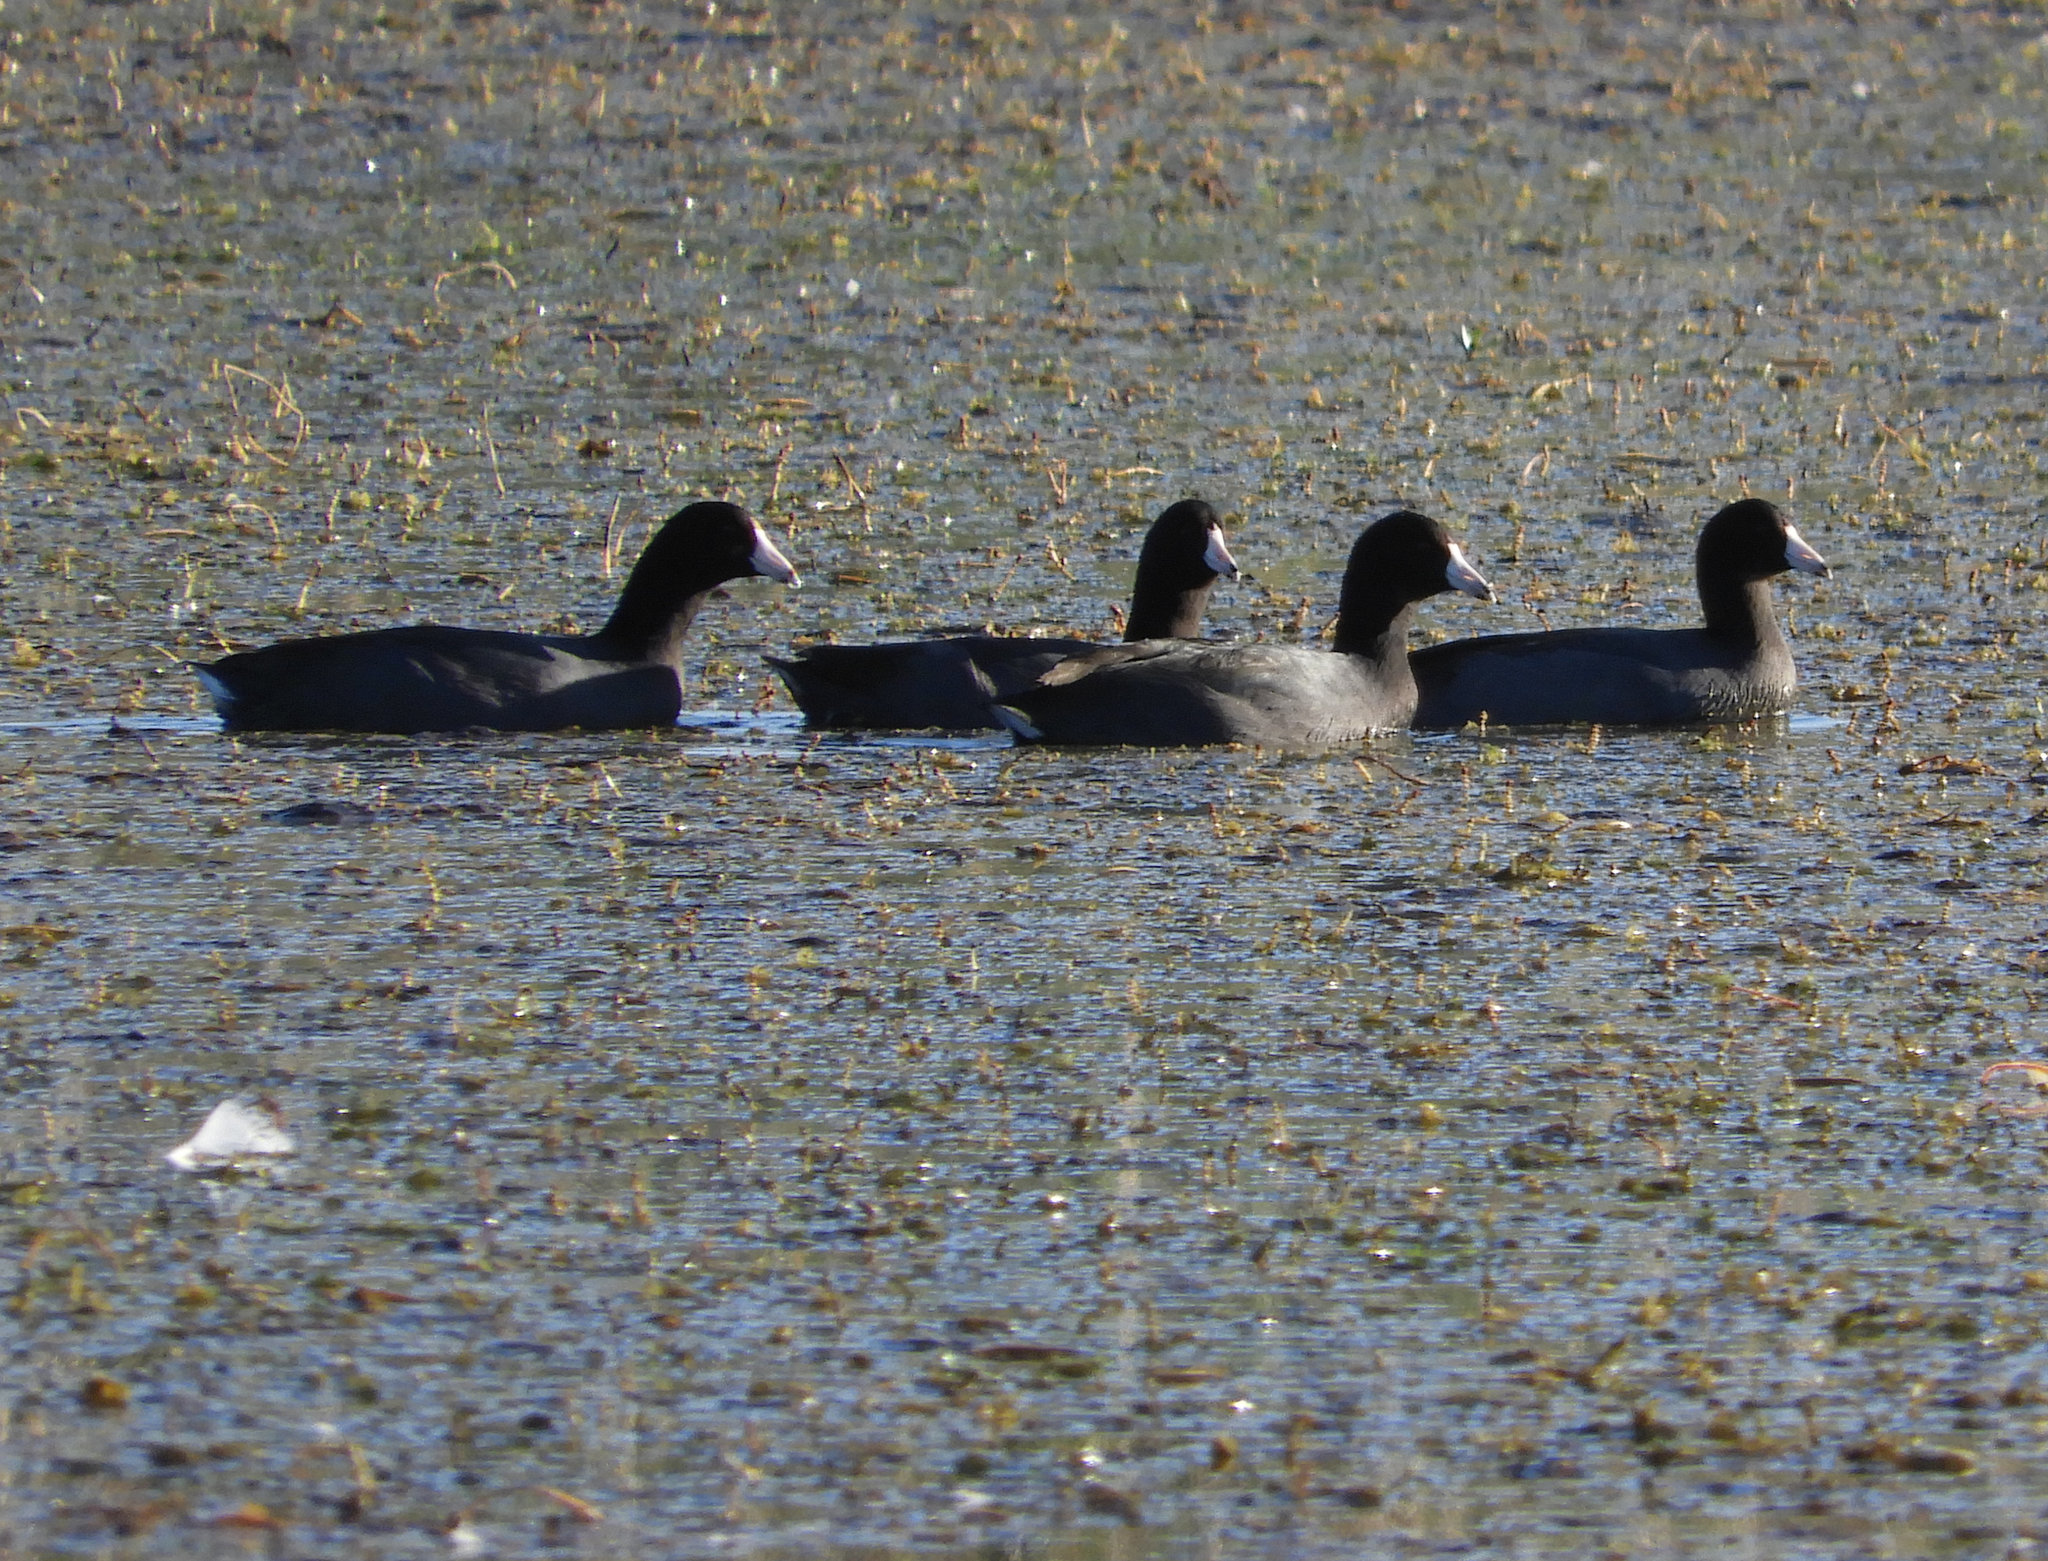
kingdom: Animalia
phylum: Chordata
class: Aves
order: Gruiformes
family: Rallidae
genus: Fulica
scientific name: Fulica americana
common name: American coot
